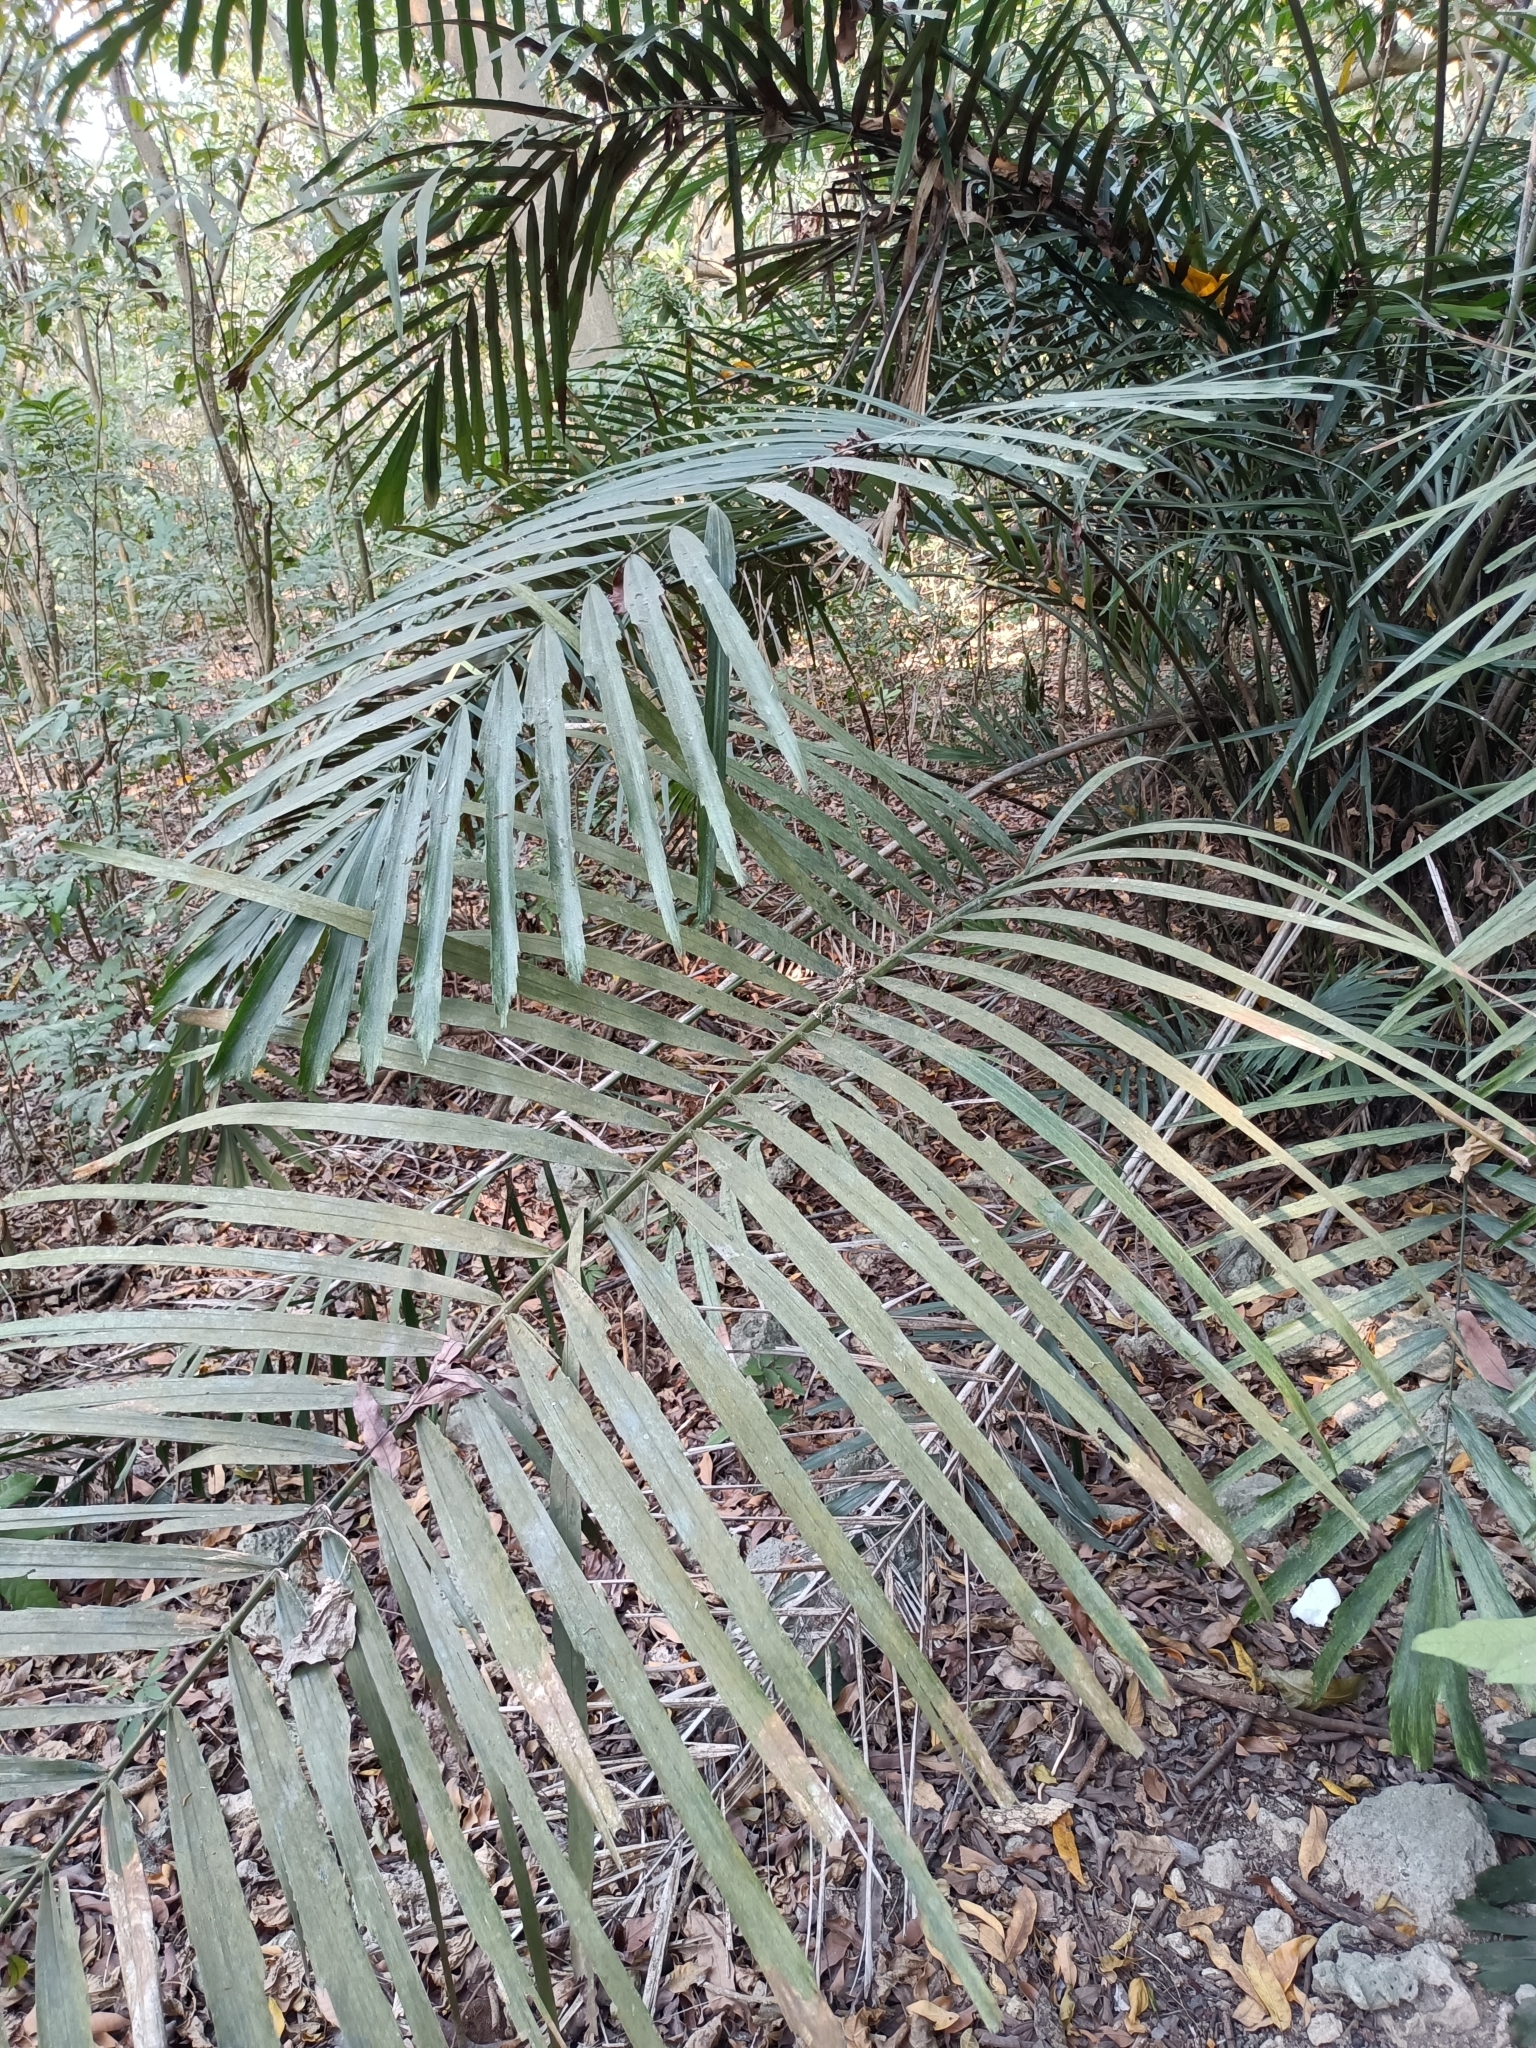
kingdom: Plantae
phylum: Tracheophyta
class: Liliopsida
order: Arecales
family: Arecaceae
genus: Arenga
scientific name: Arenga engleri
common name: Formosan sugar palm
